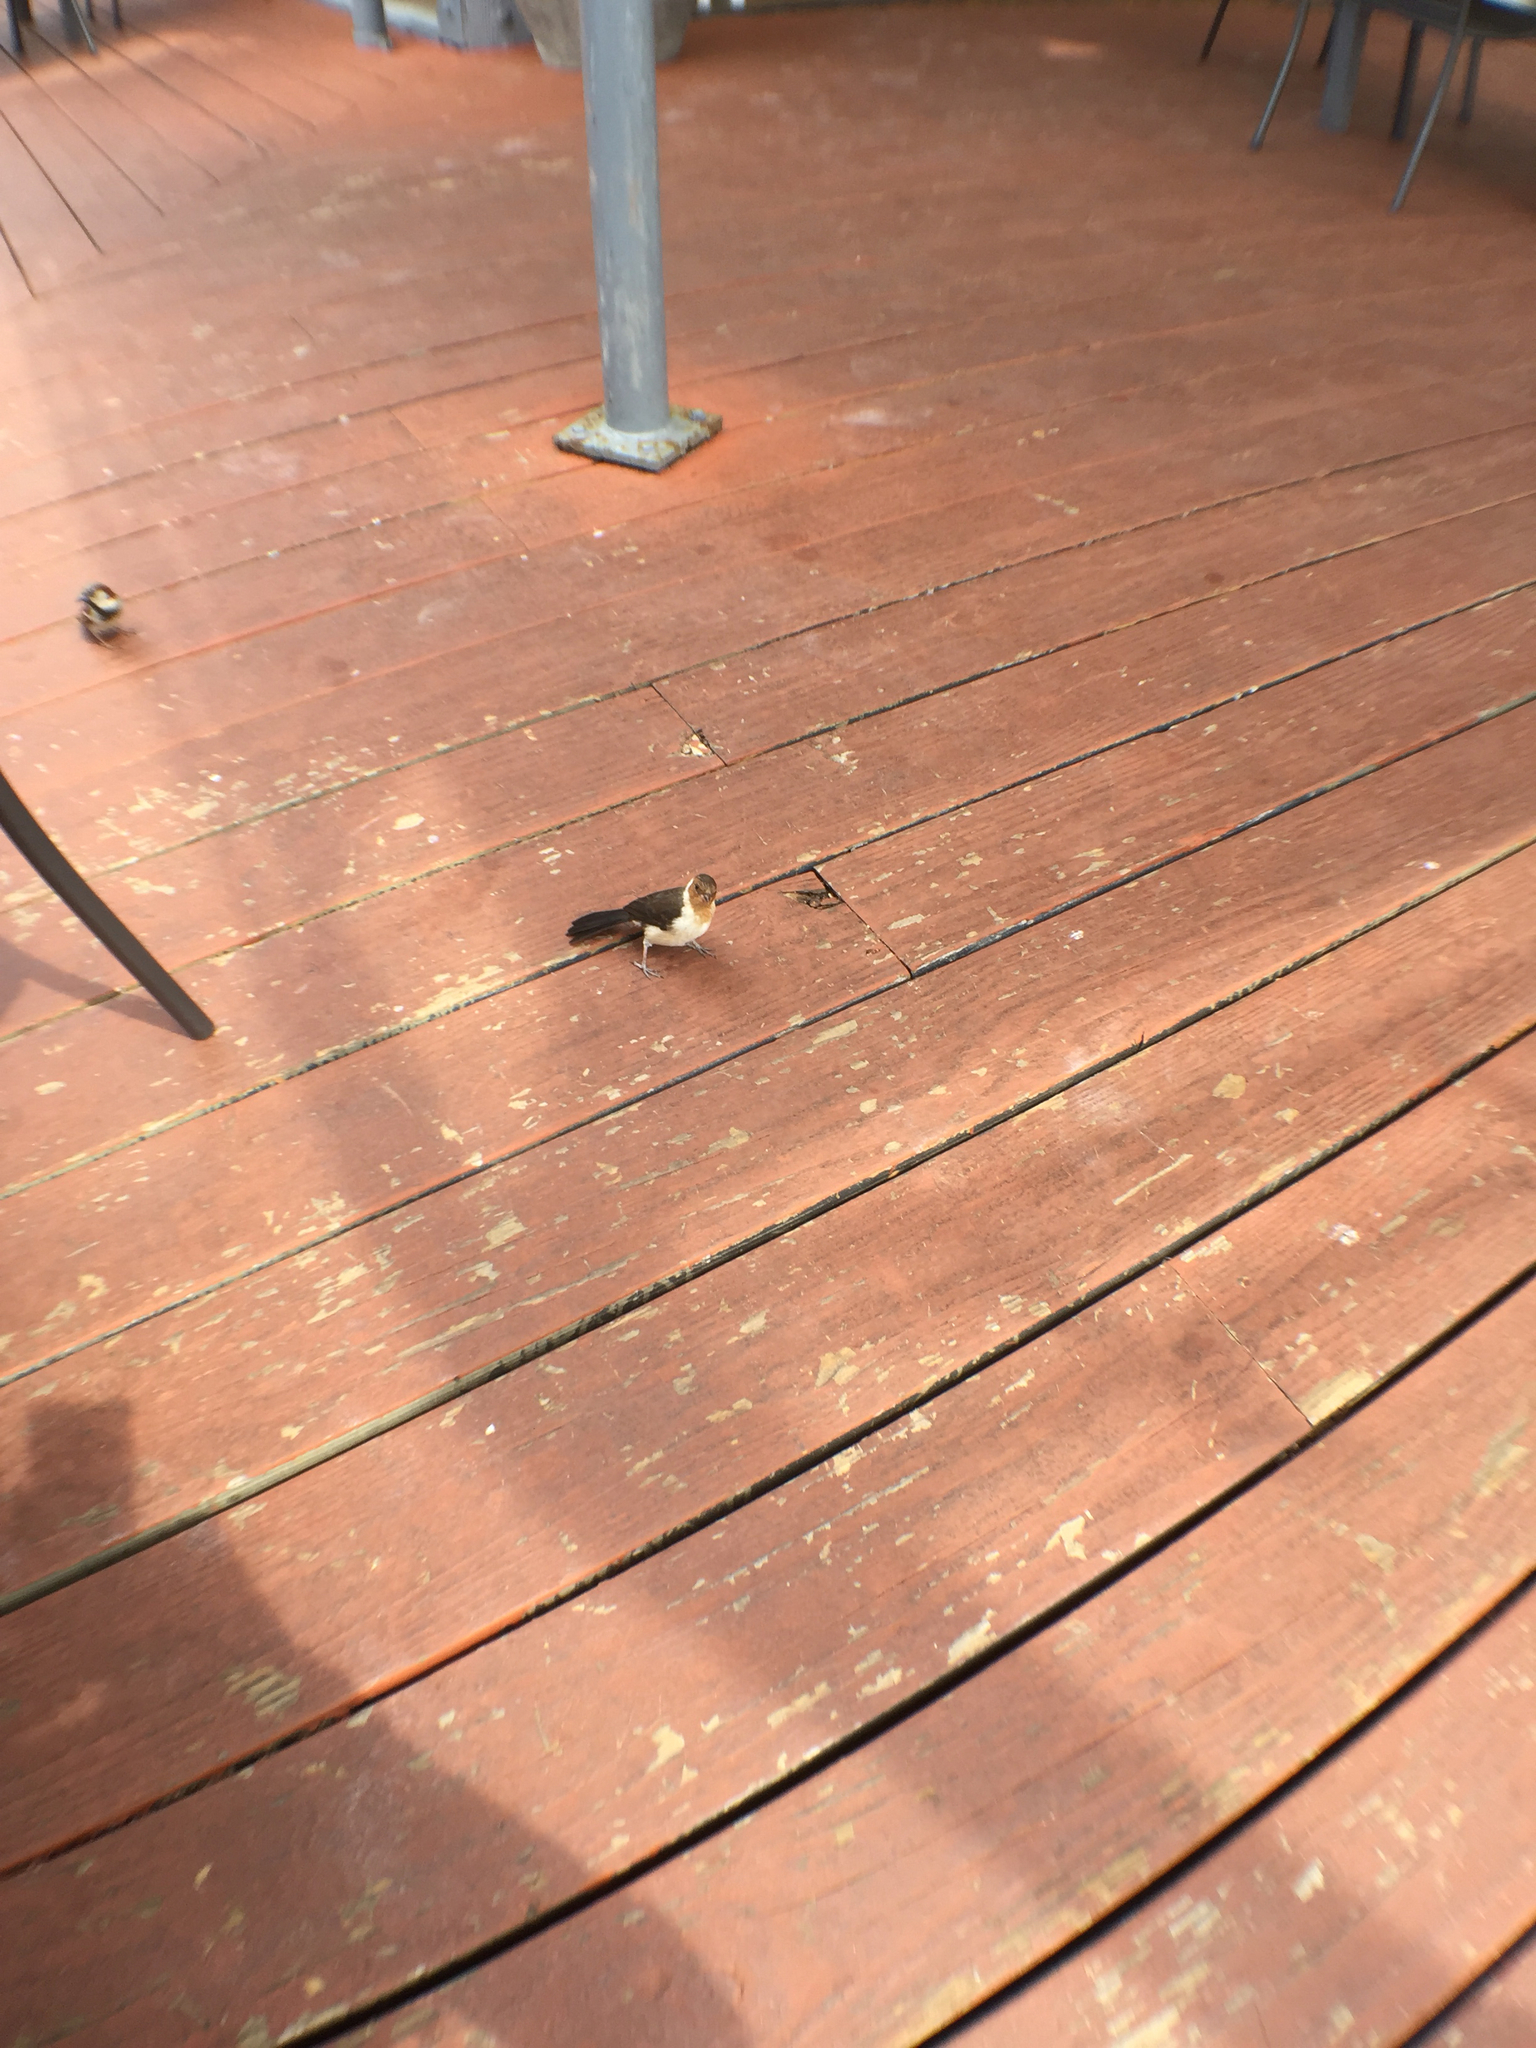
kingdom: Animalia
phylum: Chordata
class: Aves
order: Passeriformes
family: Thraupidae
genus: Paroaria
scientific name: Paroaria capitata
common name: Yellow-billed cardinal
